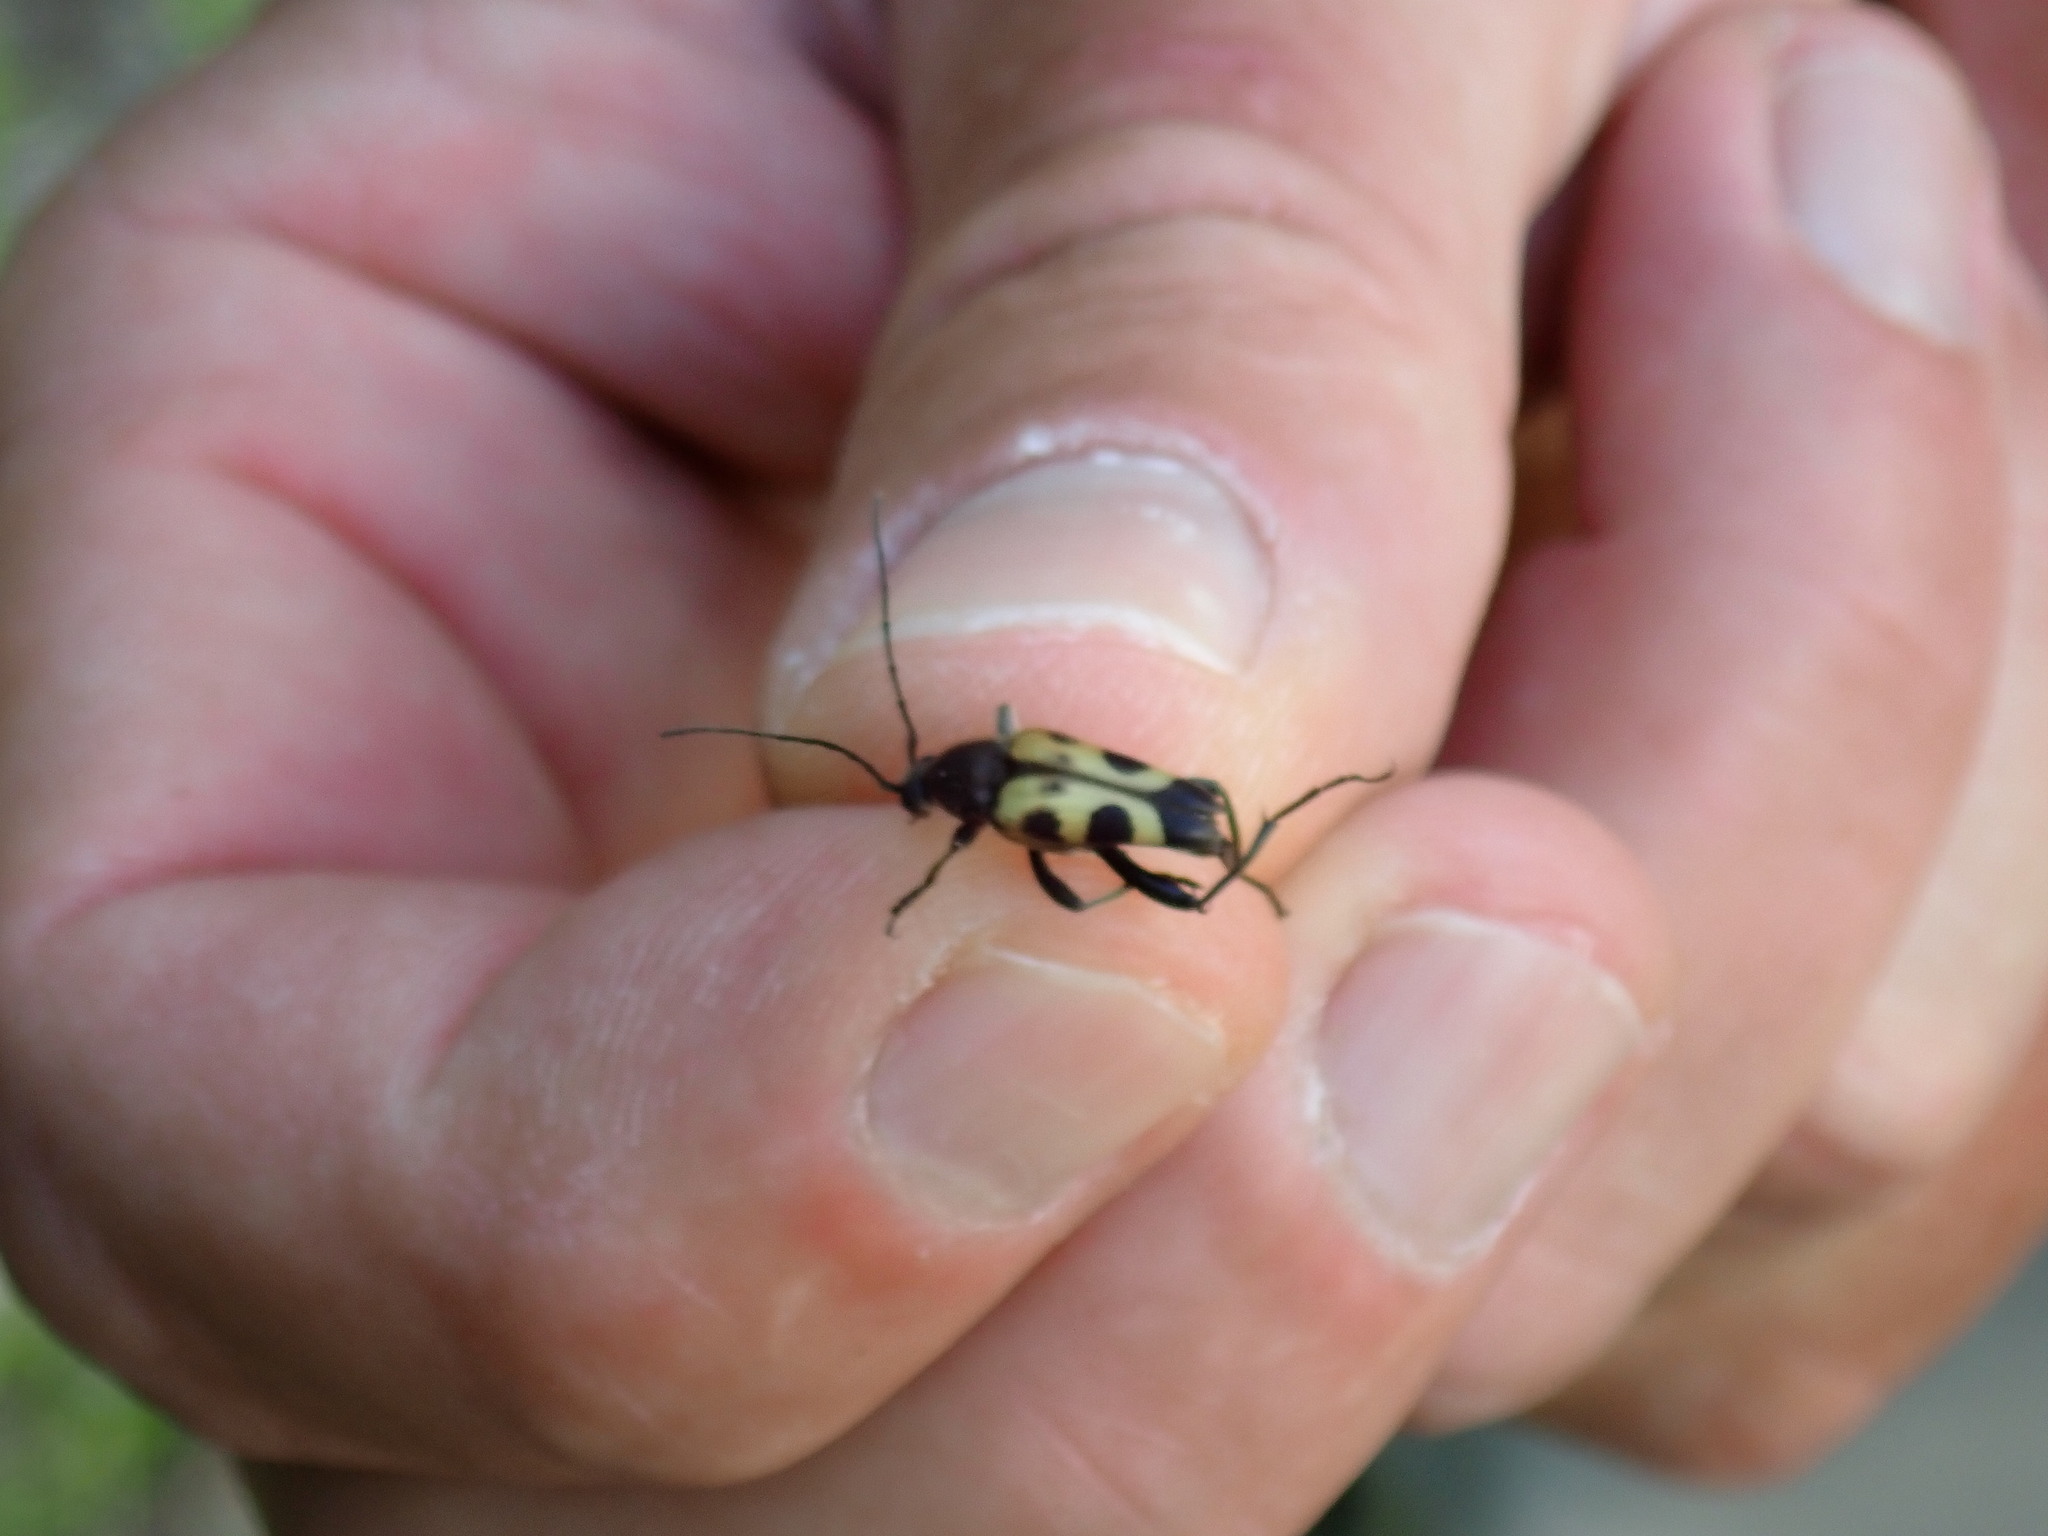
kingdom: Animalia
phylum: Arthropoda
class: Insecta
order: Coleoptera
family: Cerambycidae
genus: Judolia
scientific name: Judolia cordifera
